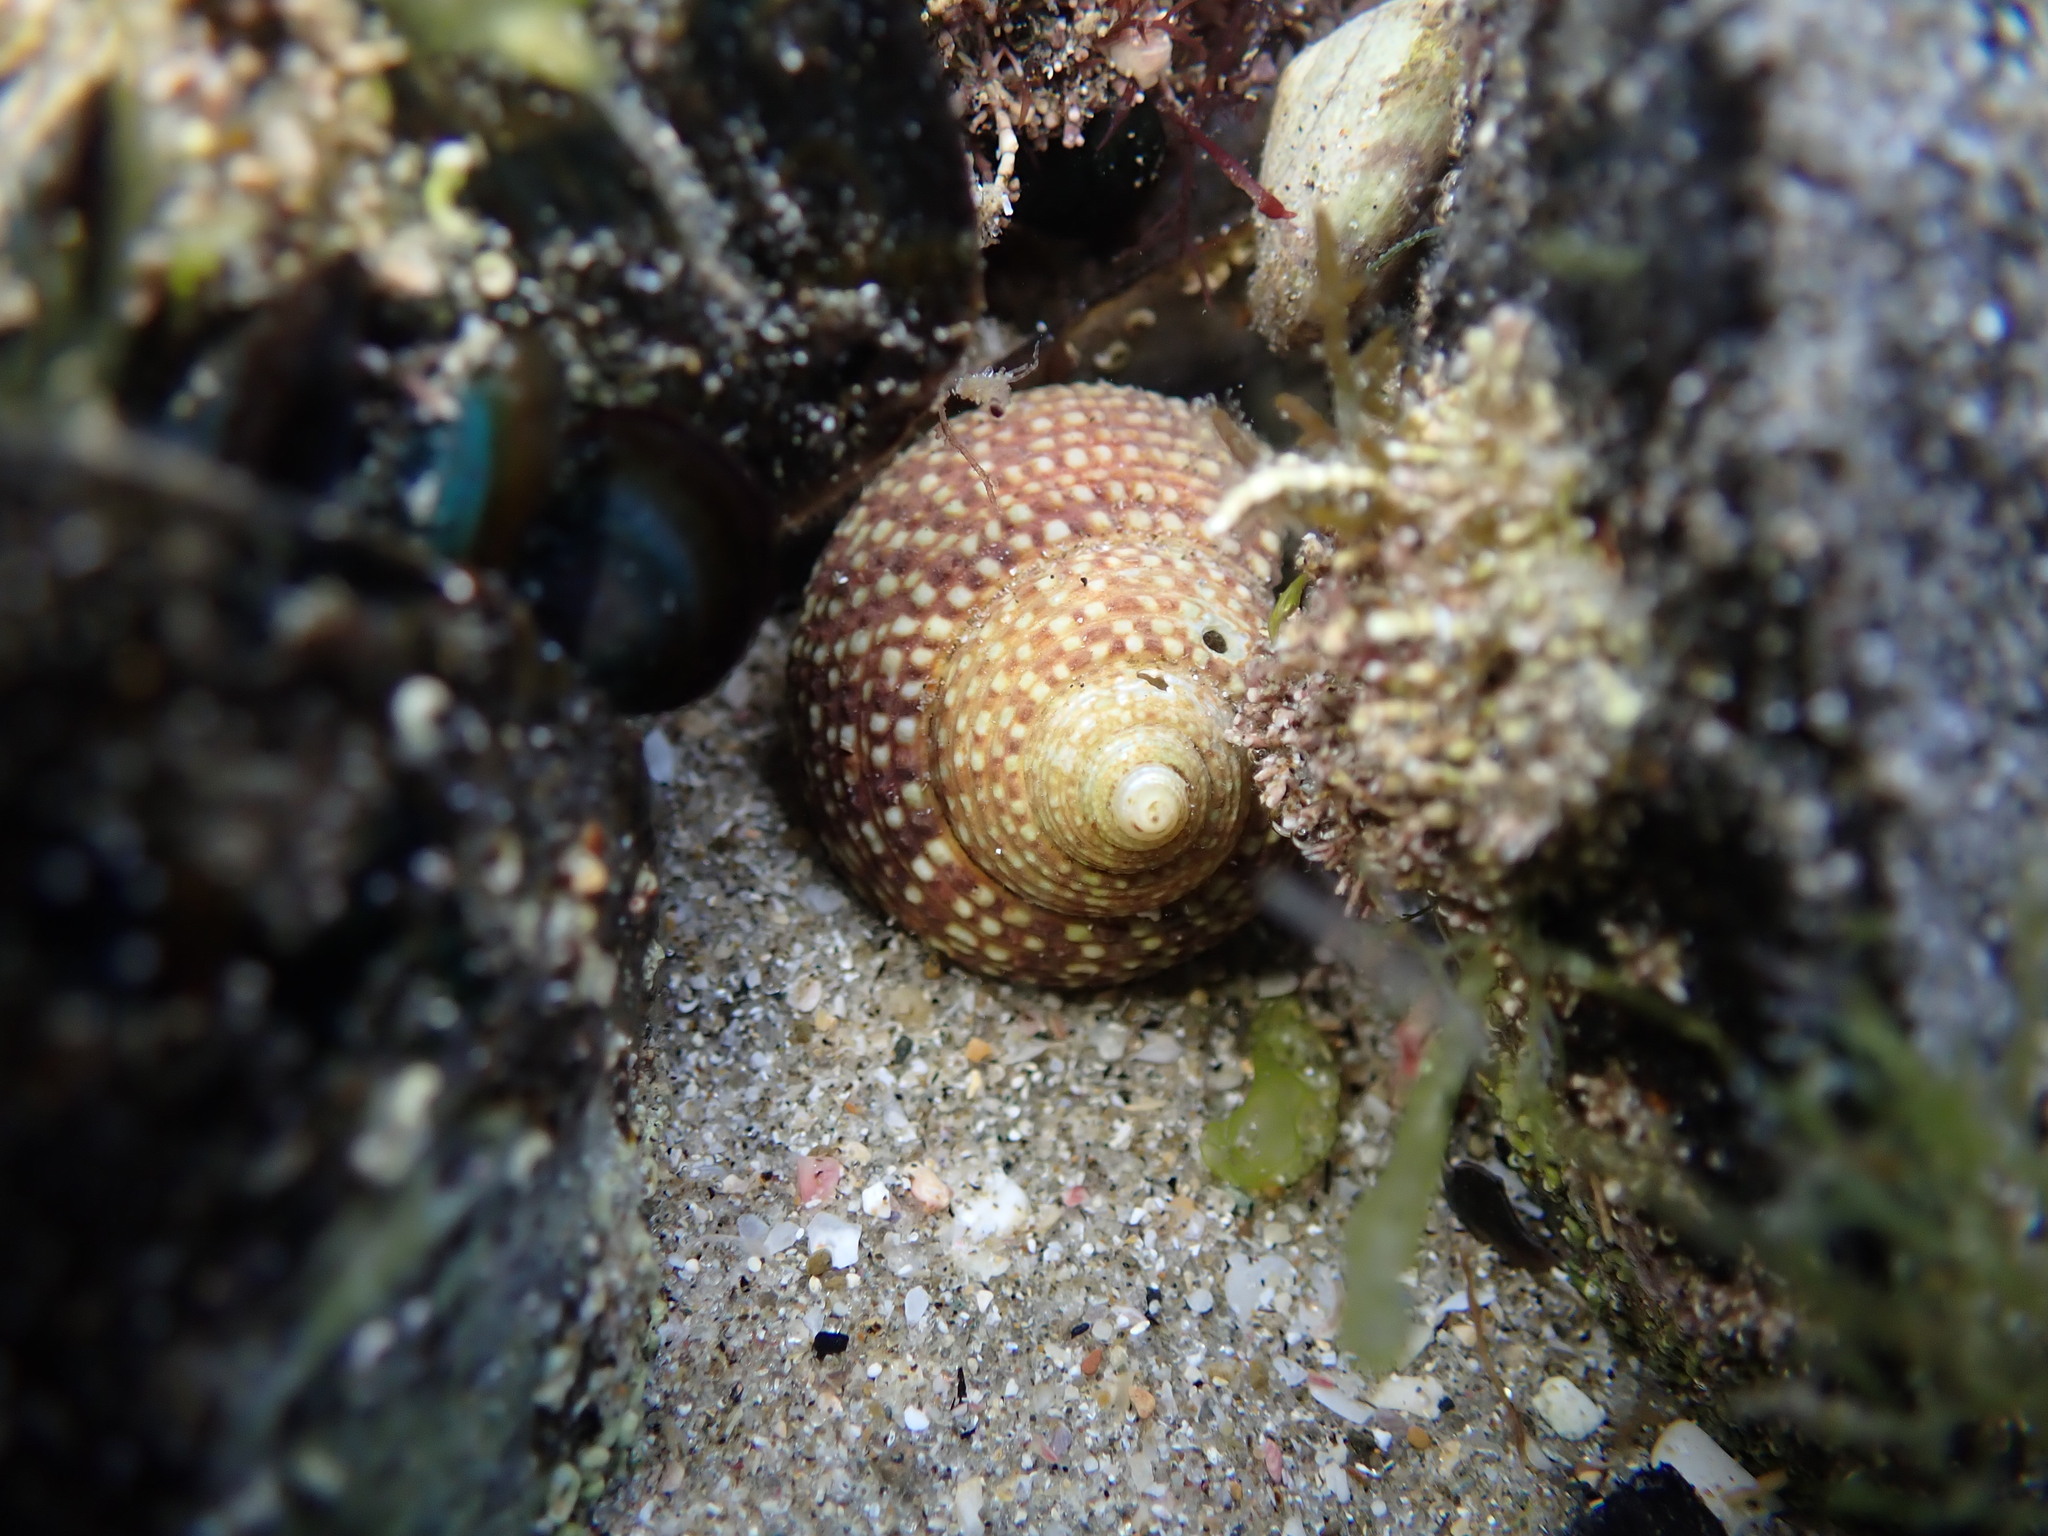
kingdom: Animalia
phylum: Mollusca
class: Gastropoda
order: Trochida
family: Calliostomatidae
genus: Maurea
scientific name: Maurea punctulata
